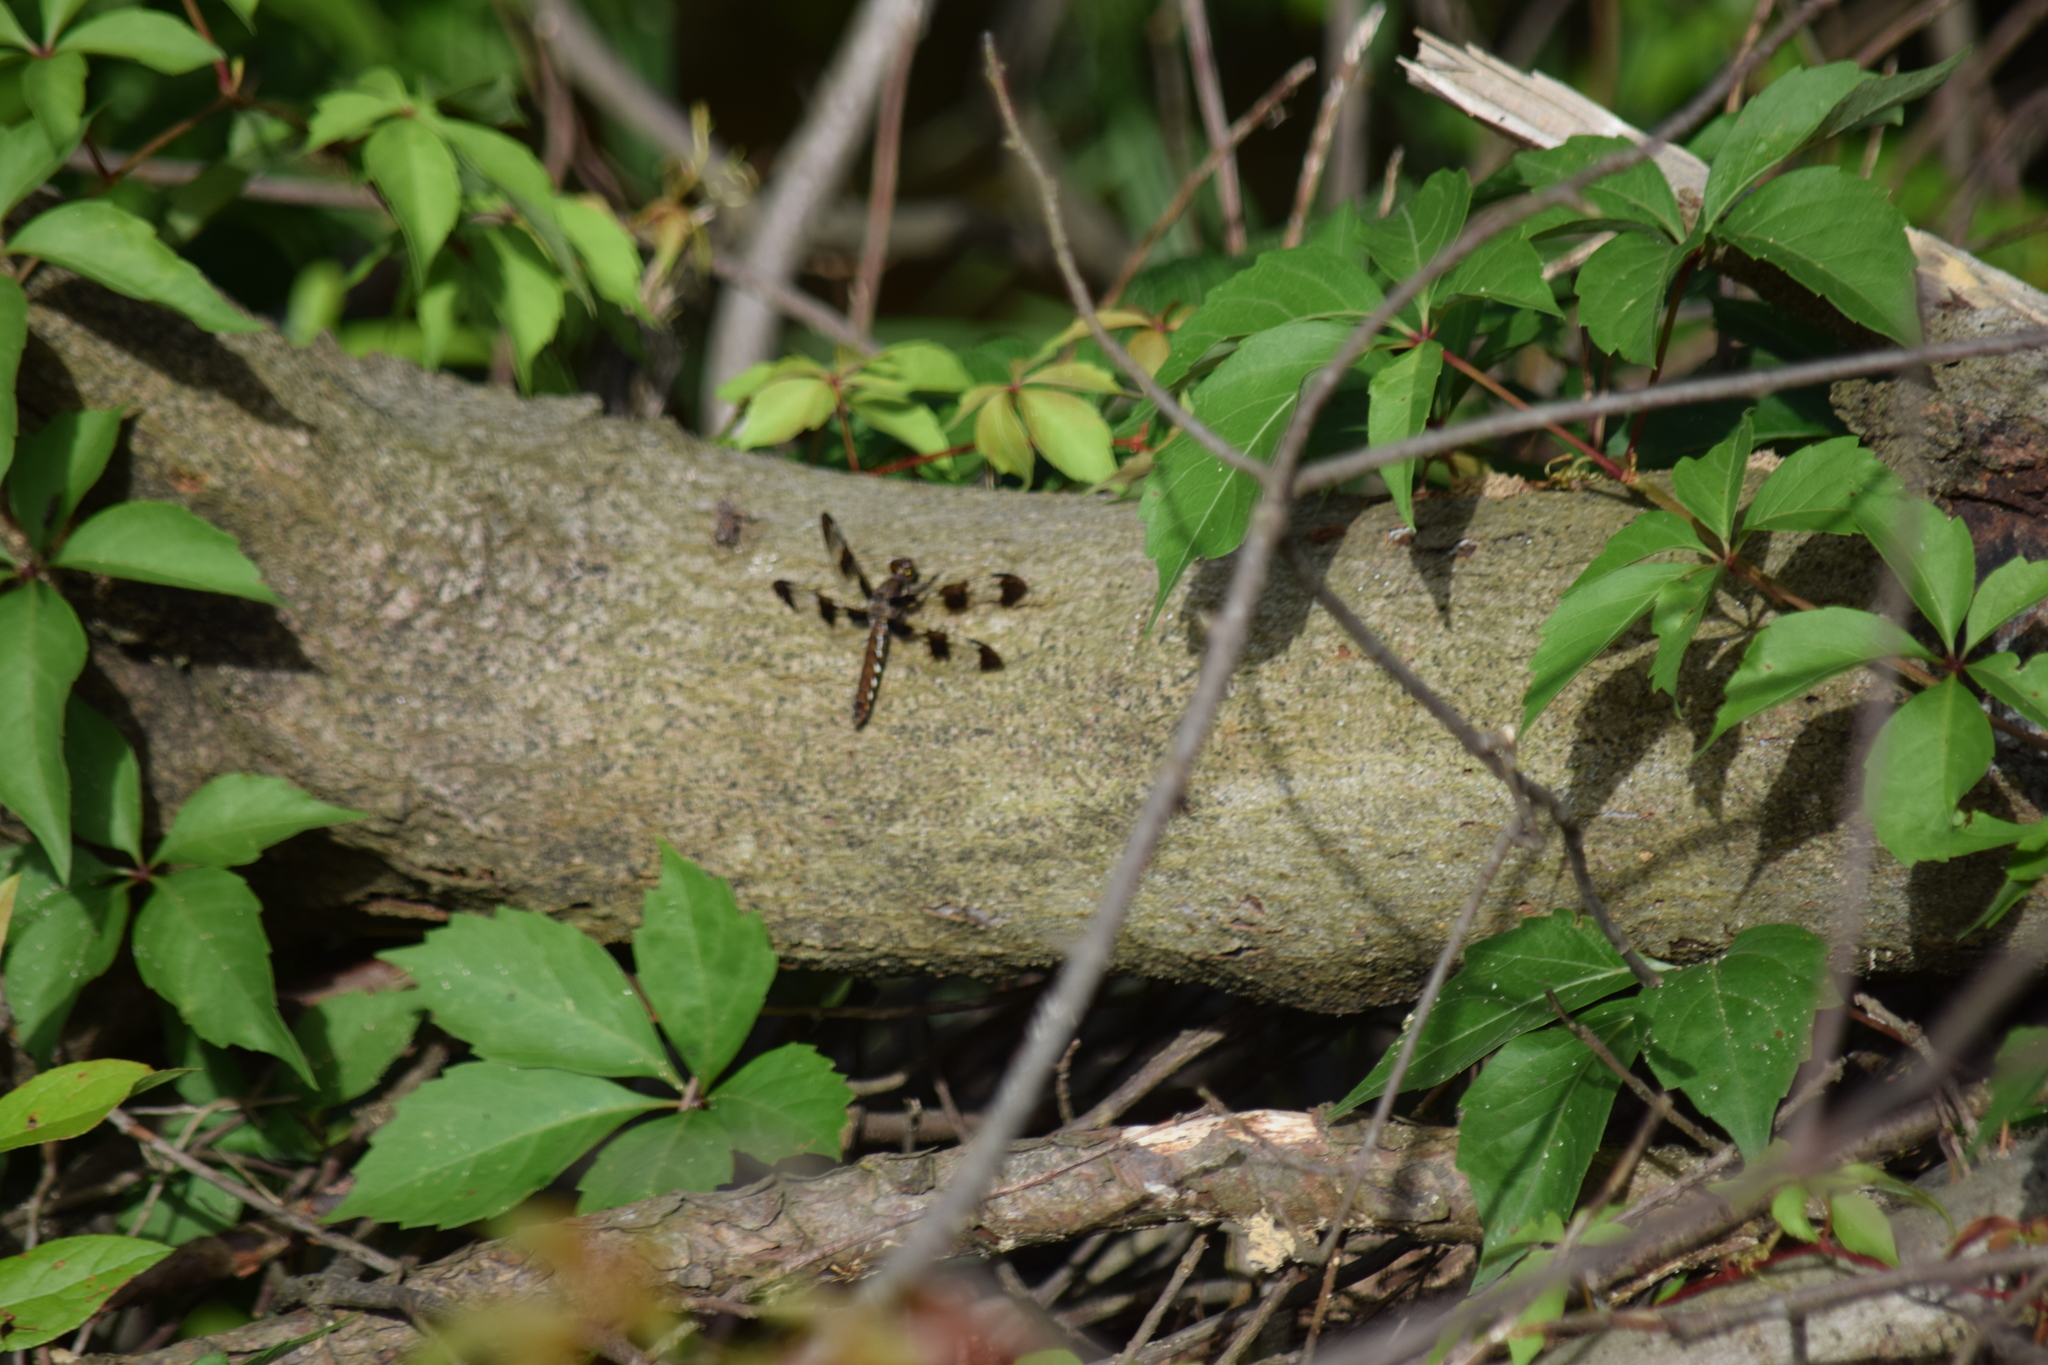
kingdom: Animalia
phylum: Arthropoda
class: Insecta
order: Odonata
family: Libellulidae
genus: Plathemis
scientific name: Plathemis lydia
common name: Common whitetail
